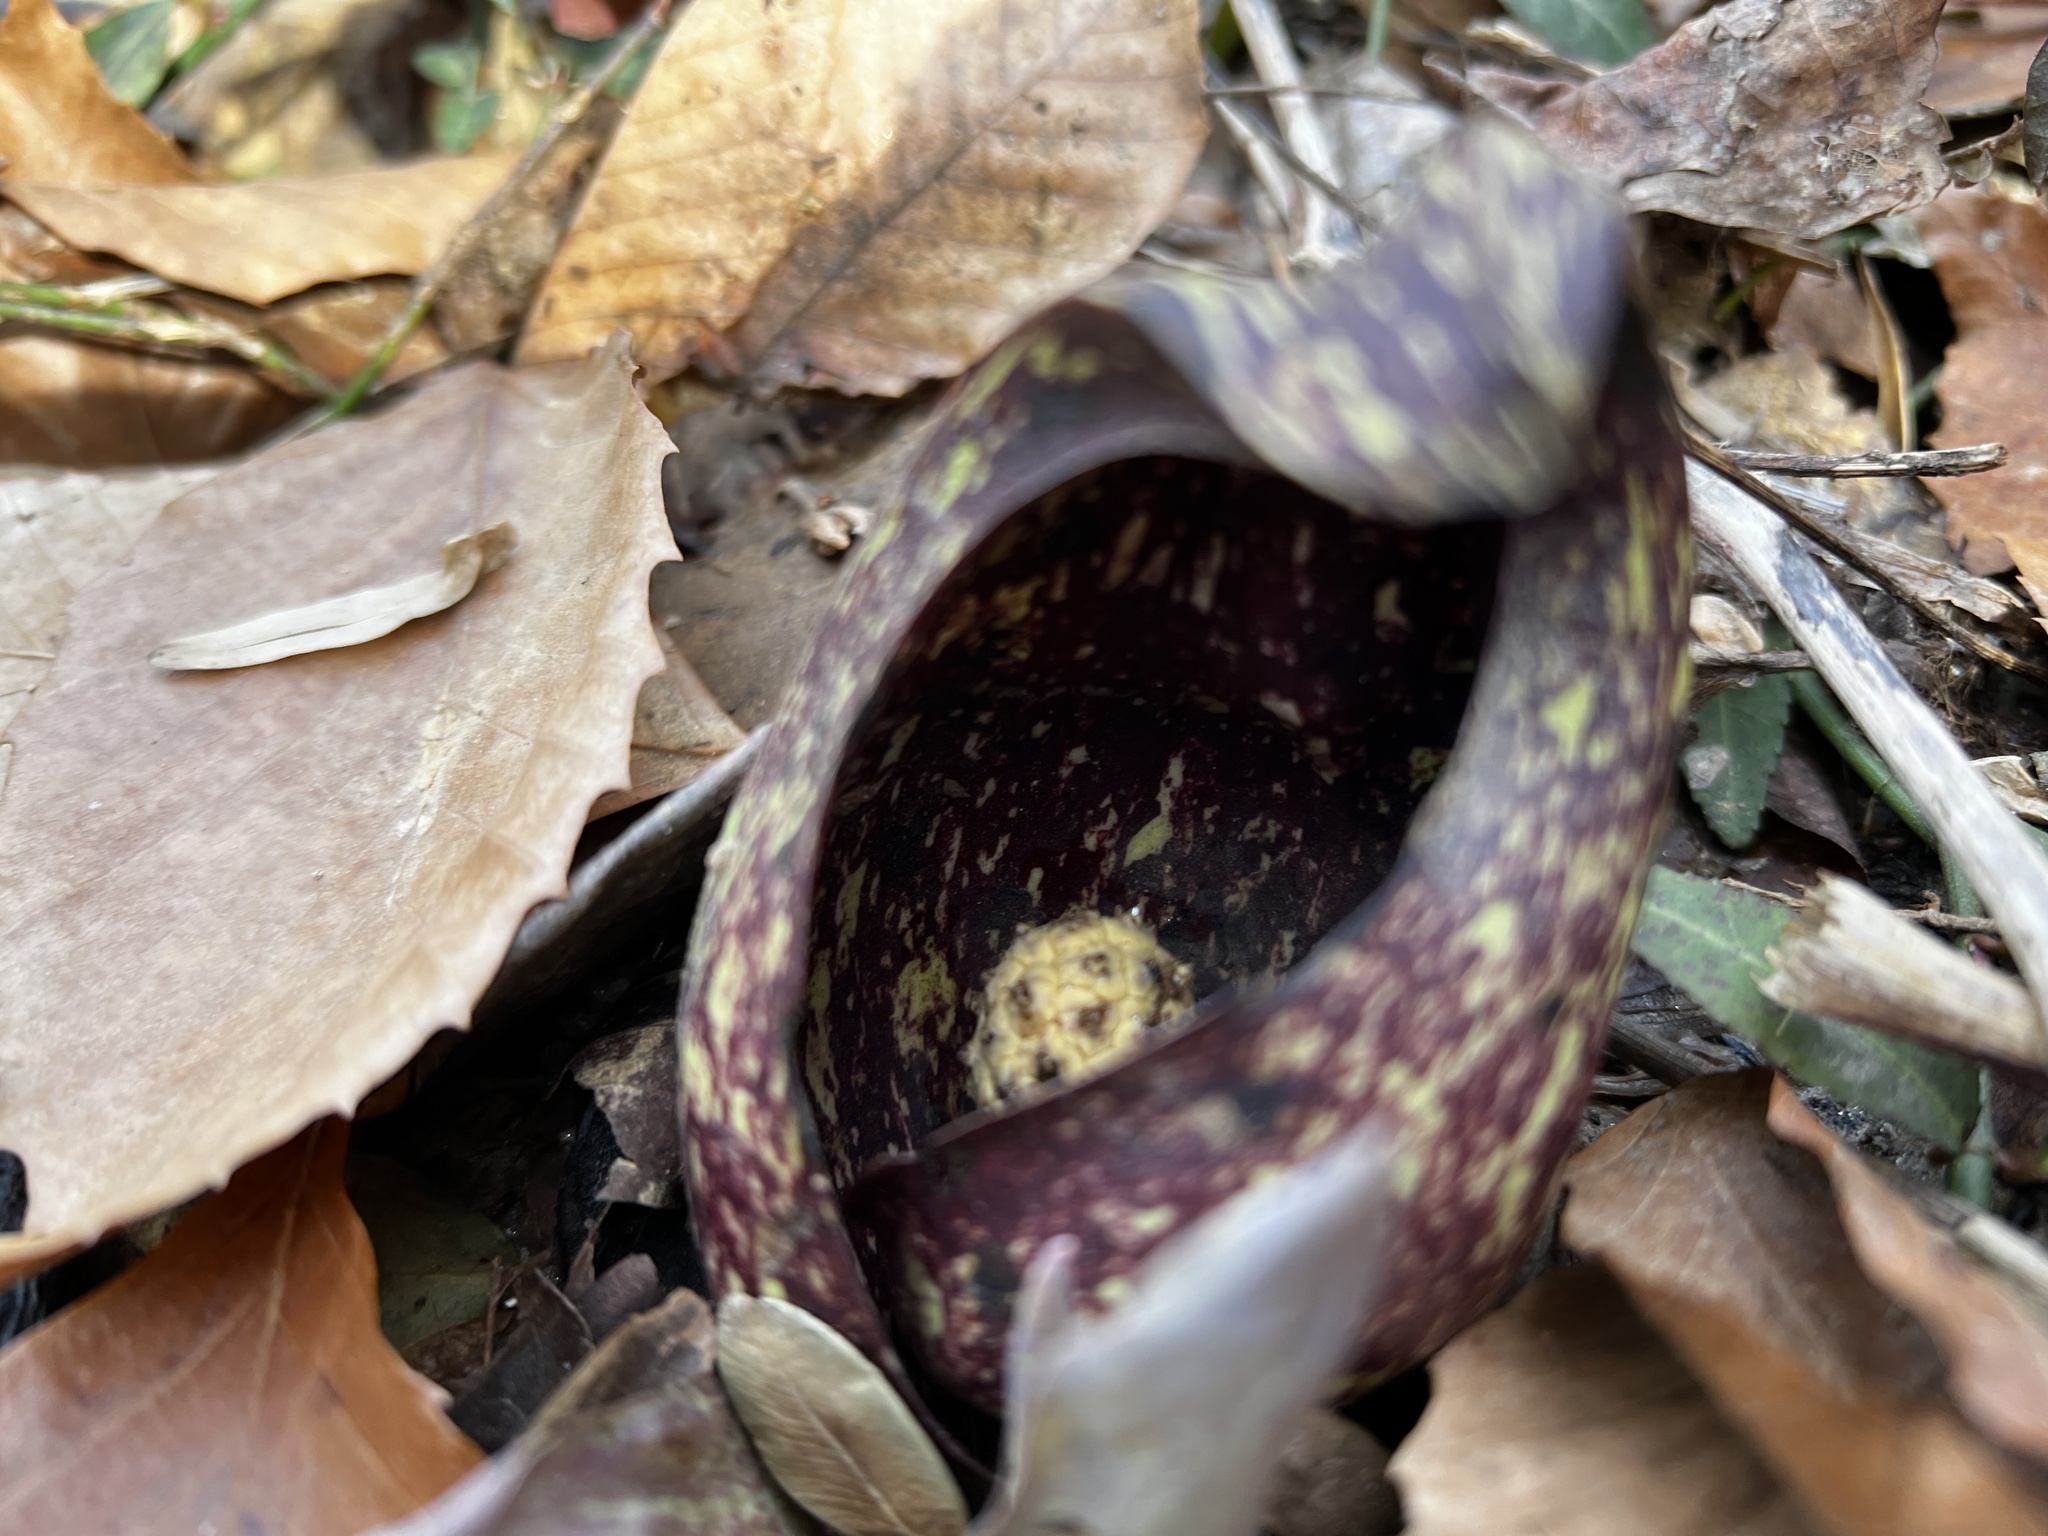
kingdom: Plantae
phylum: Tracheophyta
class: Liliopsida
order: Alismatales
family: Araceae
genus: Symplocarpus
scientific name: Symplocarpus foetidus
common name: Eastern skunk cabbage
